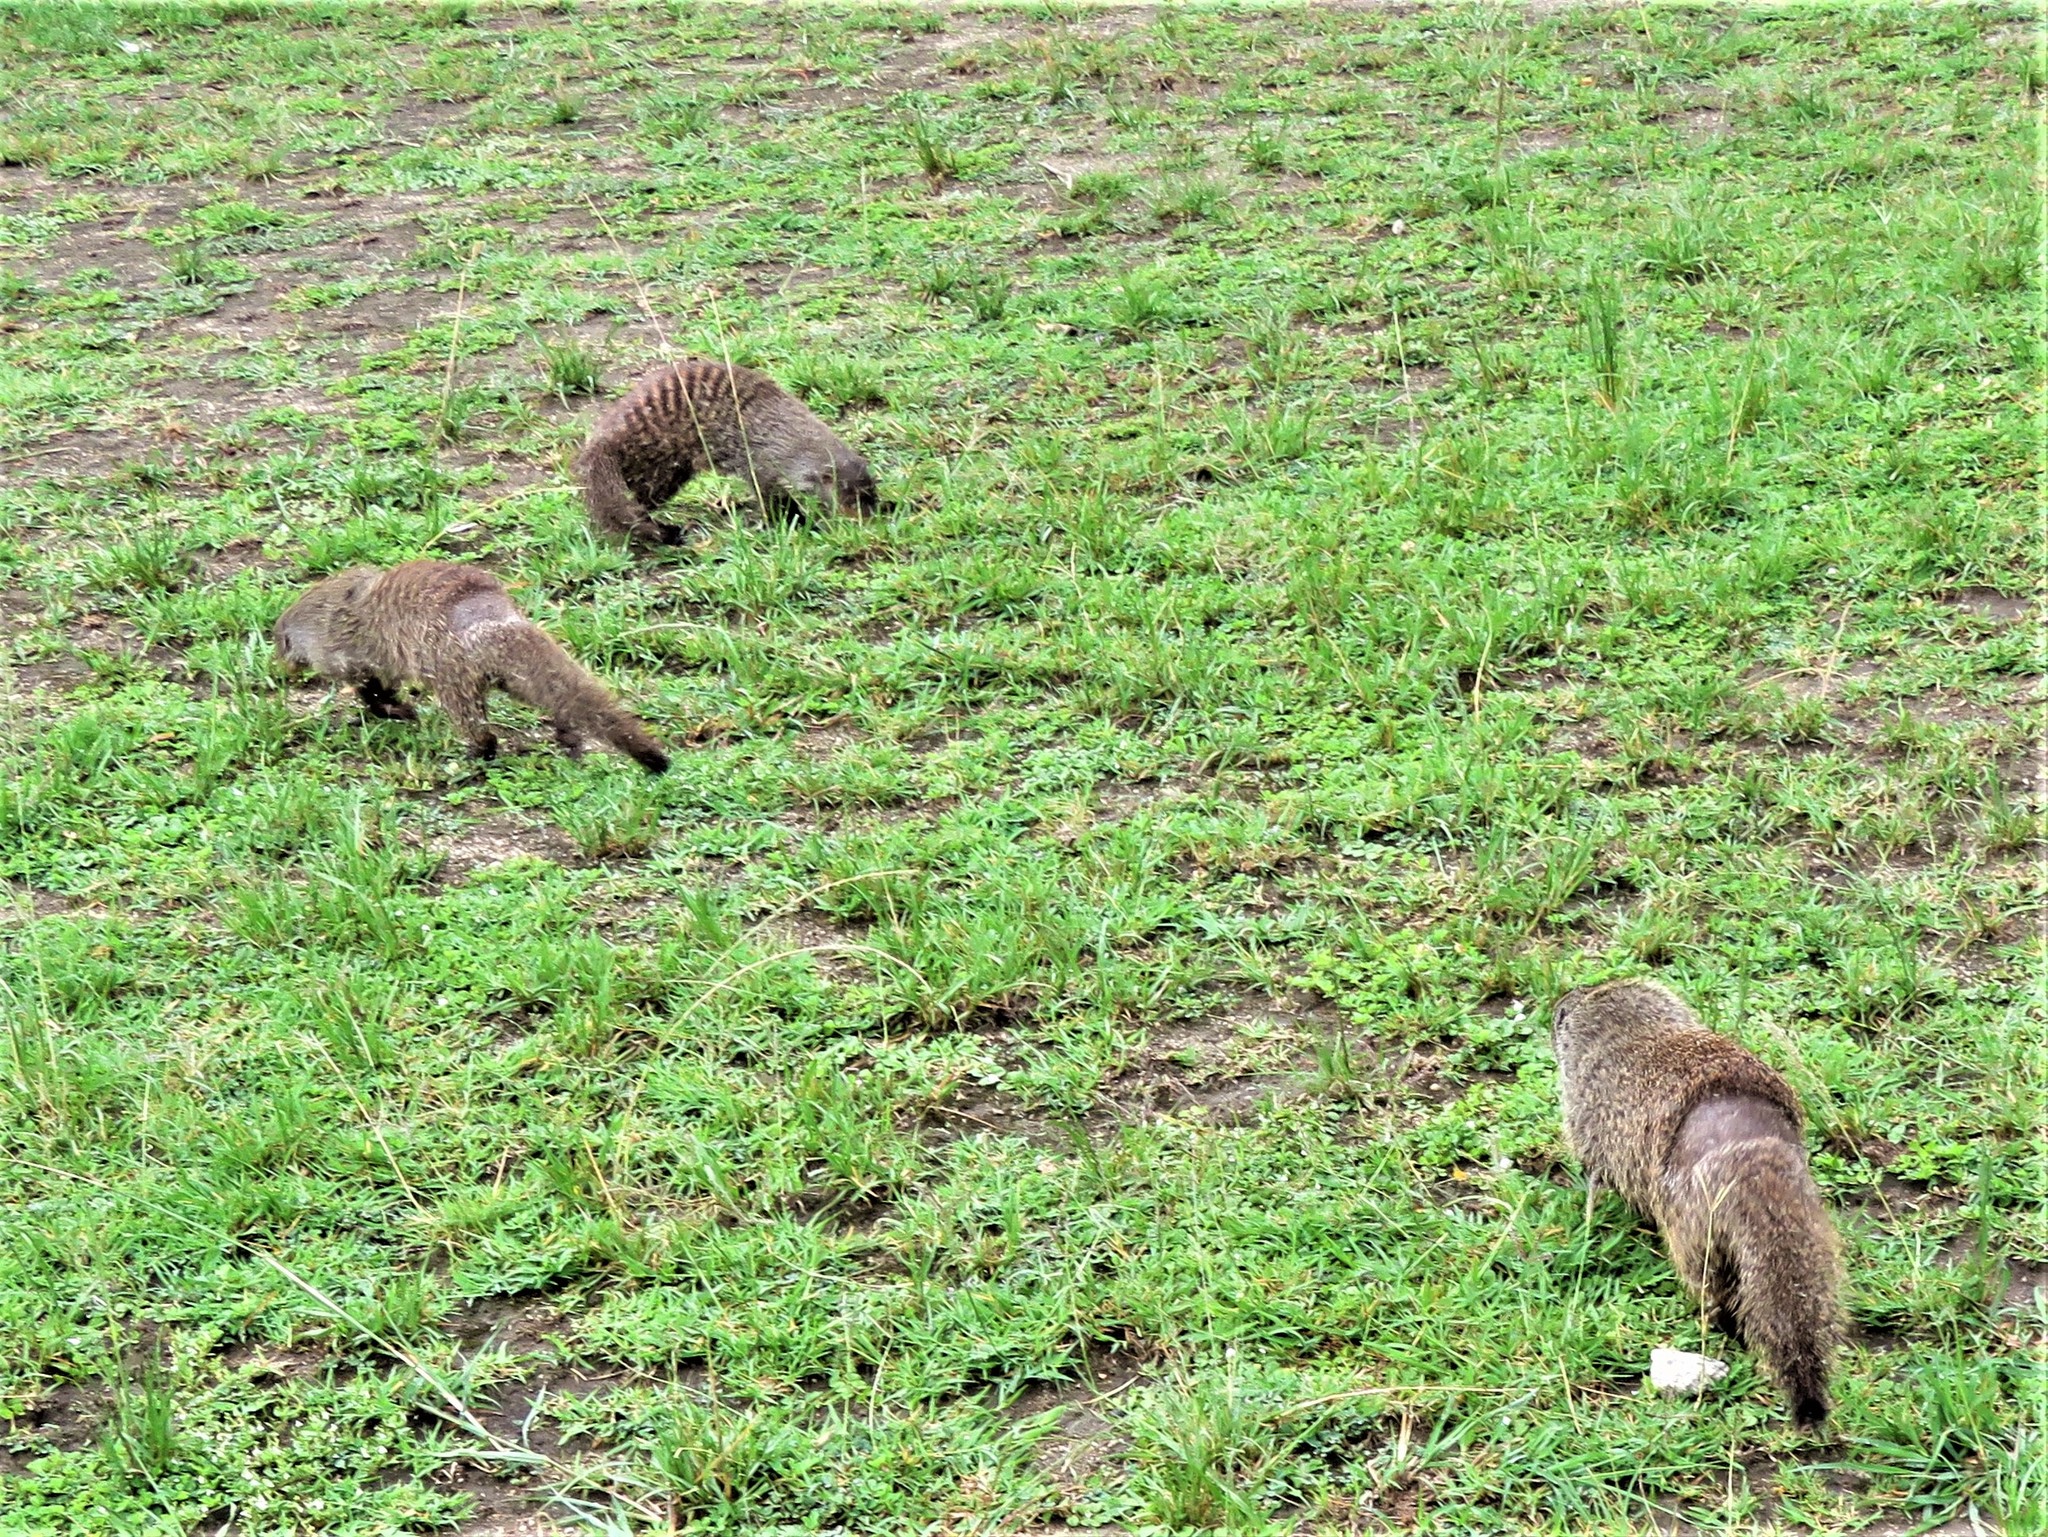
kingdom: Animalia
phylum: Chordata
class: Mammalia
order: Carnivora
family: Herpestidae
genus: Mungos
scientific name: Mungos mungo
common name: Banded mongoose
